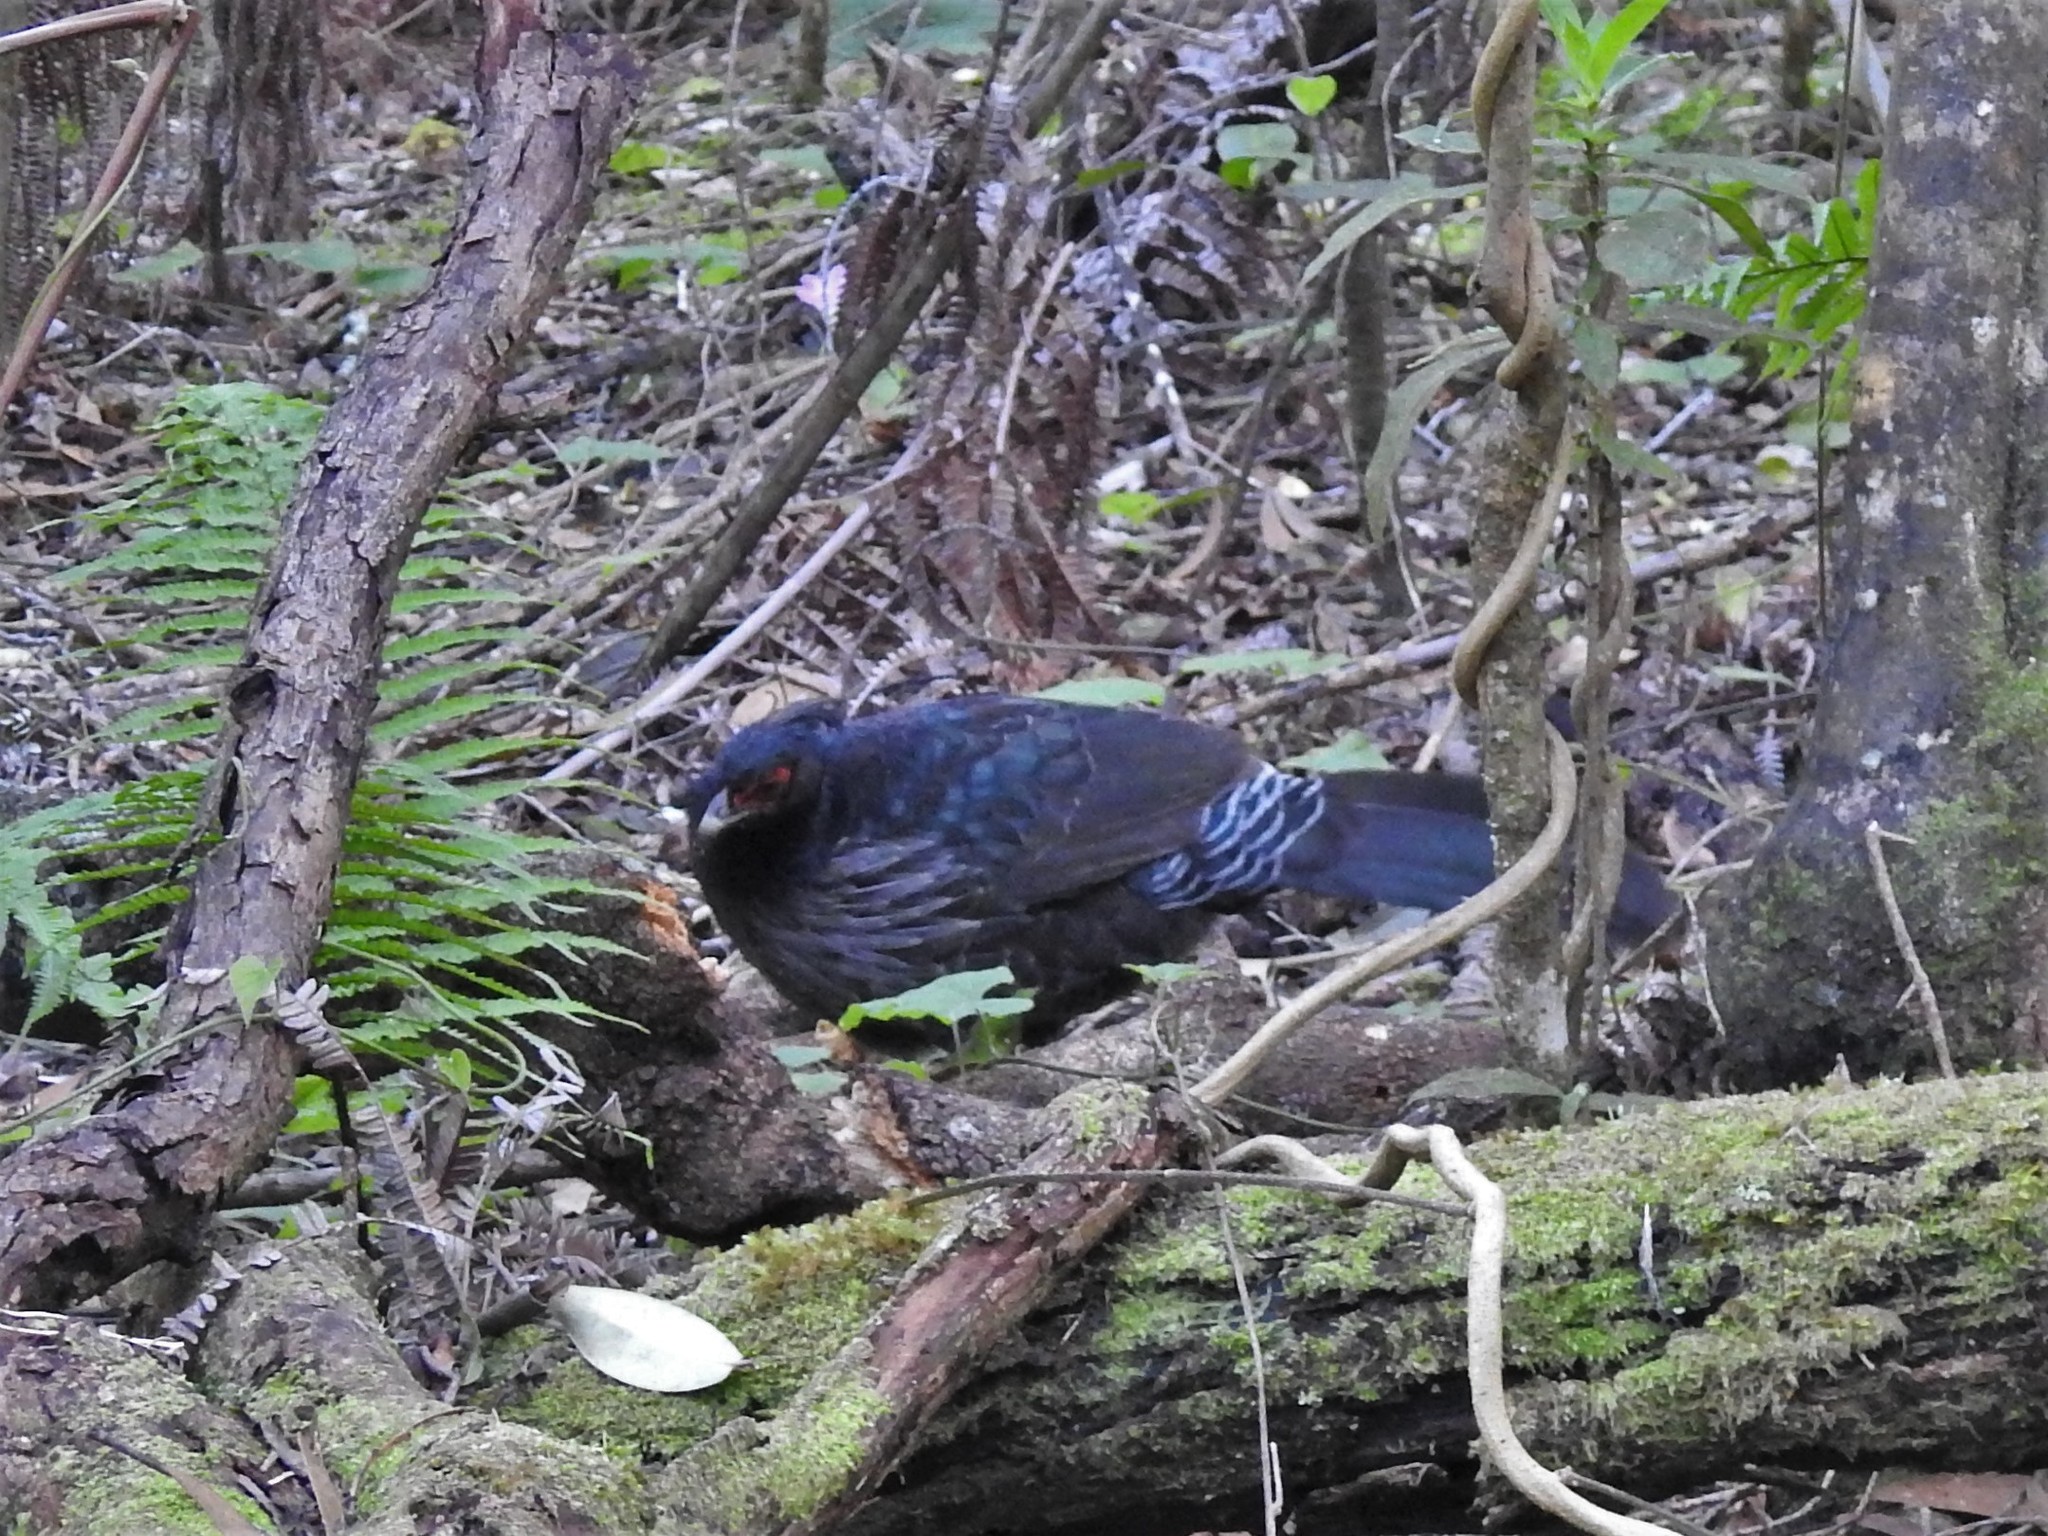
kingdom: Animalia
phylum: Chordata
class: Aves
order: Galliformes
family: Phasianidae
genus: Lophura
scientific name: Lophura leucomelanos
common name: Kalij pheasant
